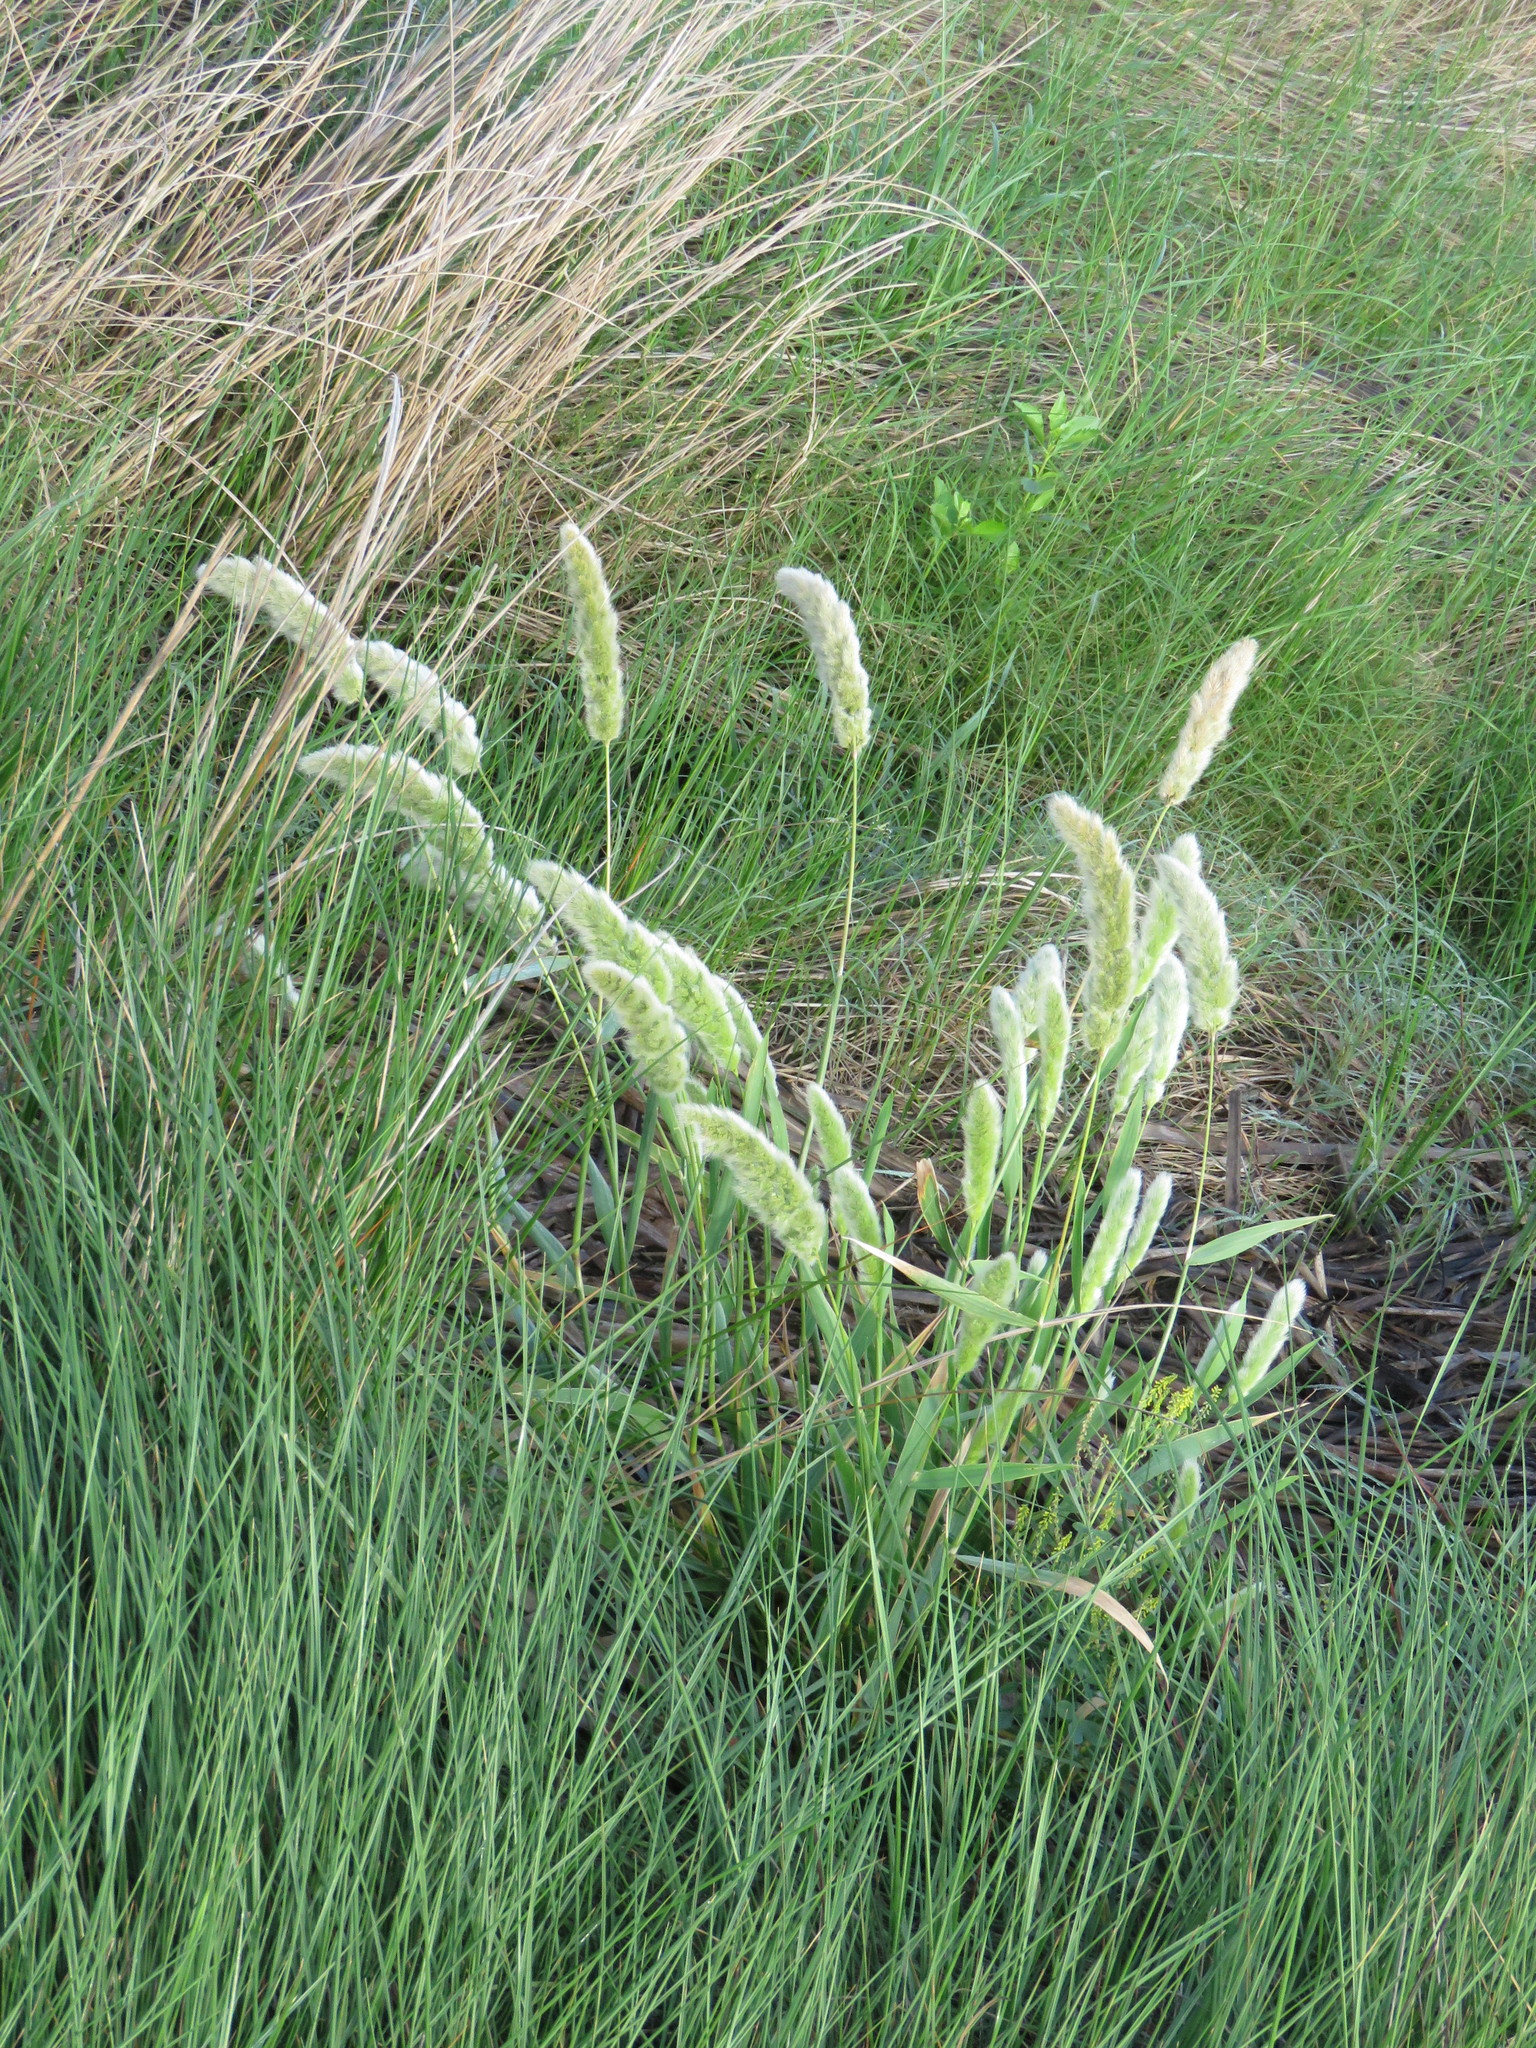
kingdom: Plantae
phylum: Tracheophyta
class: Liliopsida
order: Poales
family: Poaceae
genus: Polypogon
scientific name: Polypogon monspeliensis
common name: Annual rabbitsfoot grass
